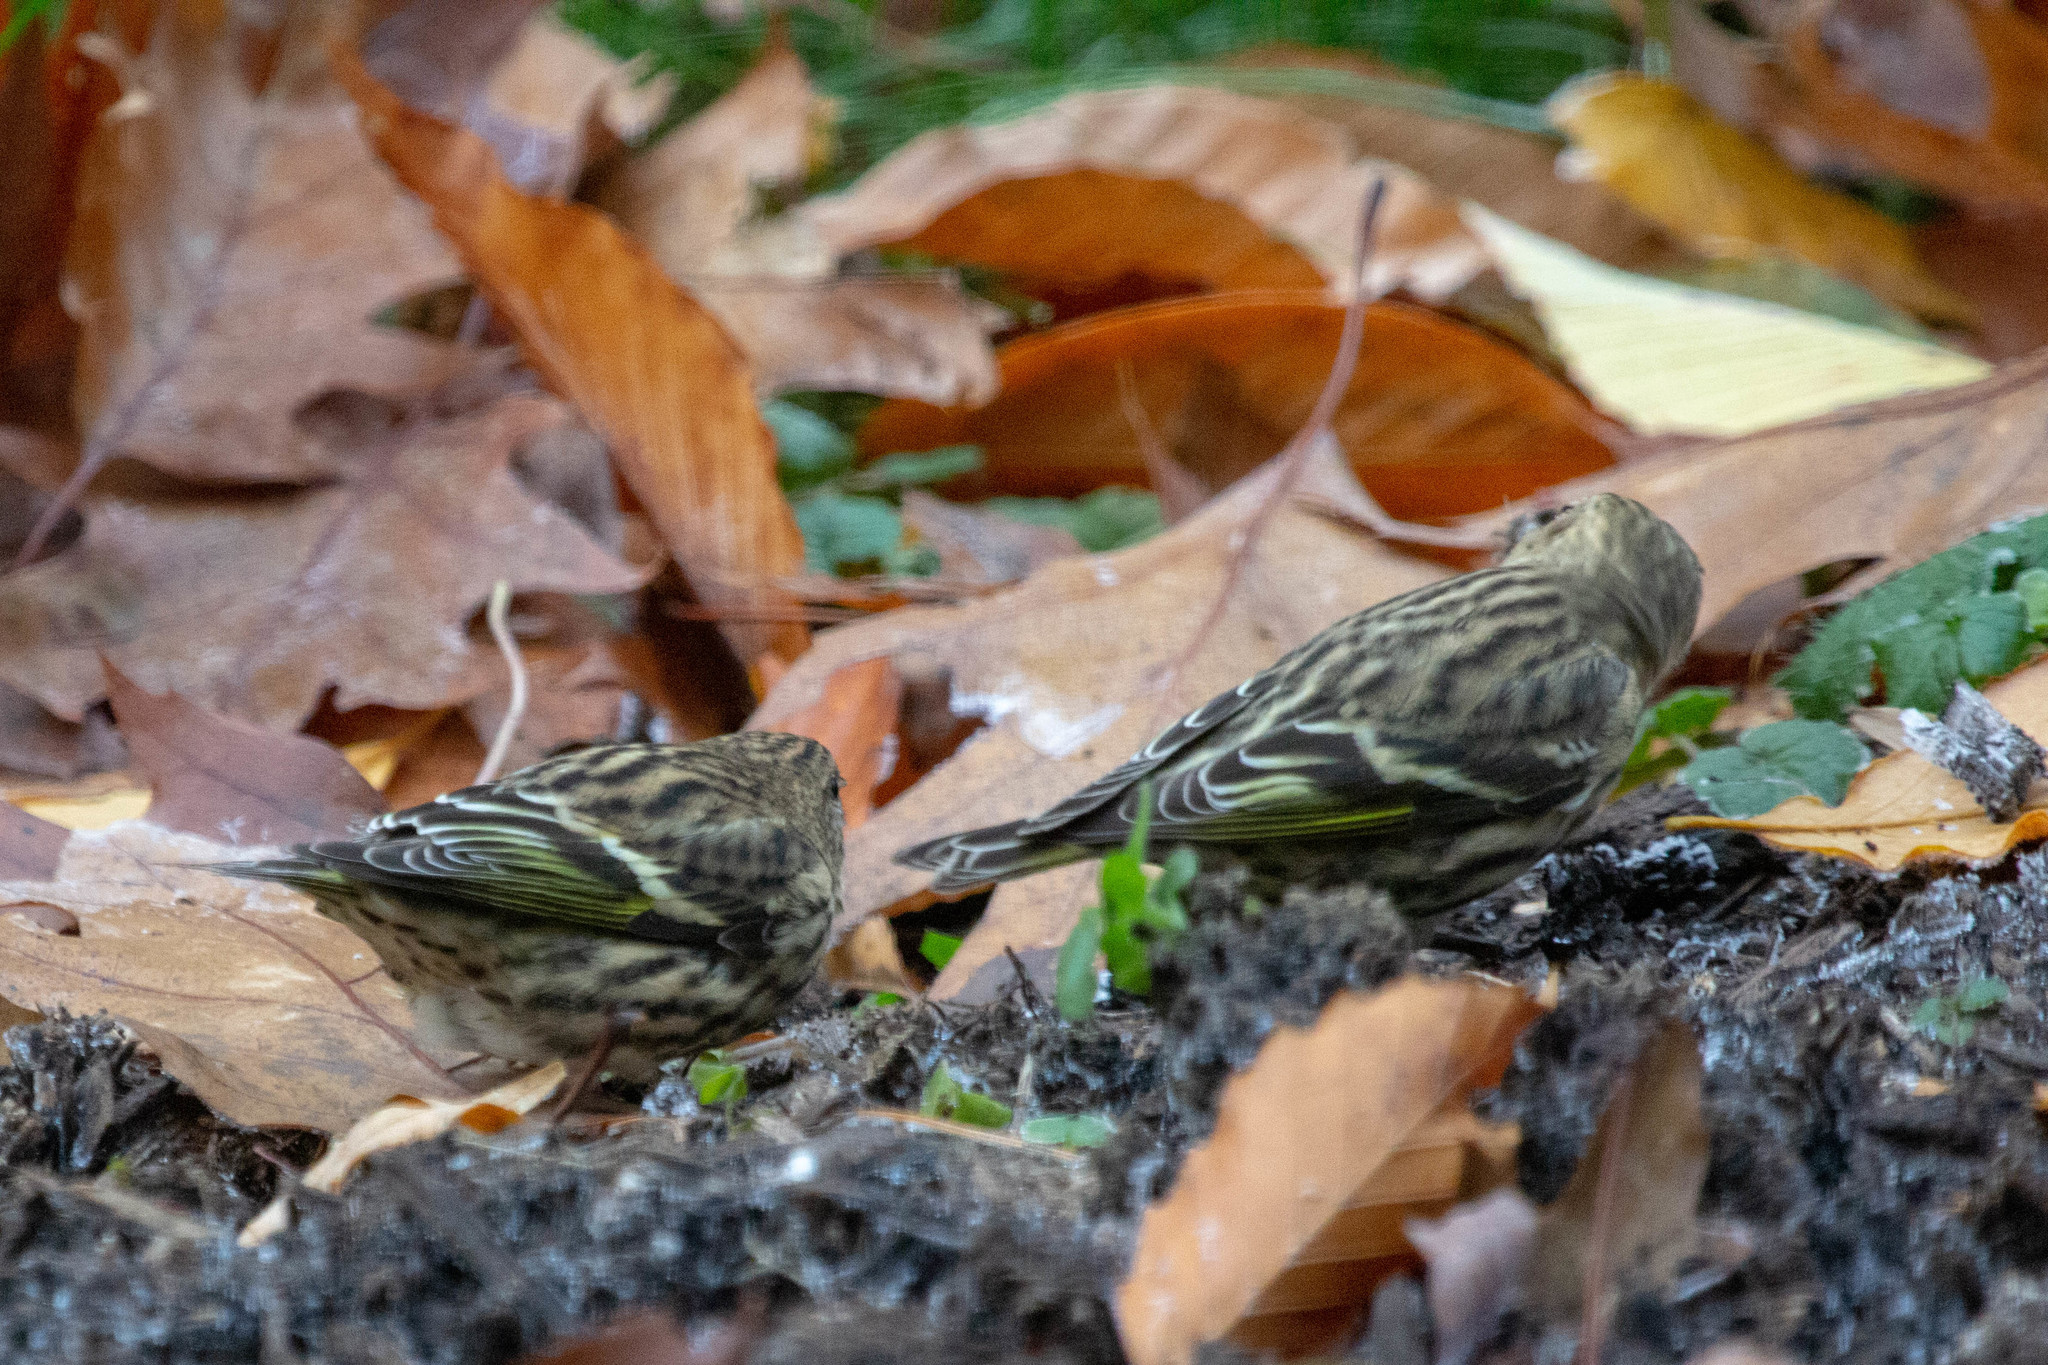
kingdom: Animalia
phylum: Chordata
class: Aves
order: Passeriformes
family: Fringillidae
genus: Spinus
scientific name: Spinus pinus
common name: Pine siskin
